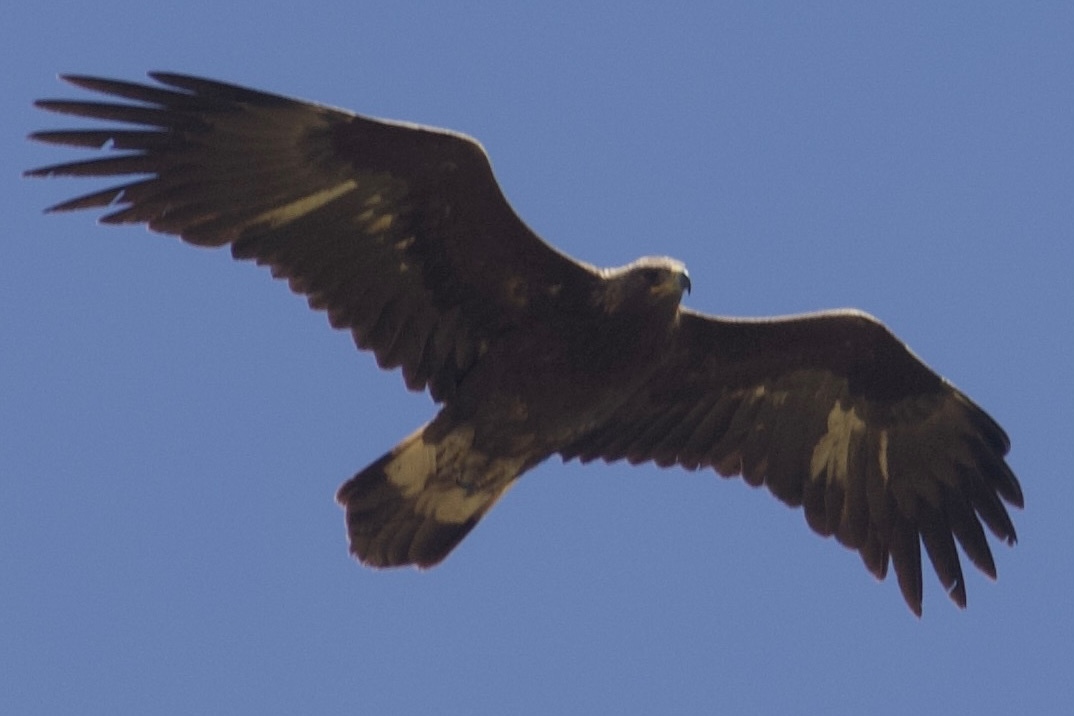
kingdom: Animalia
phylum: Chordata
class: Aves
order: Accipitriformes
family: Accipitridae
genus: Aquila
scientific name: Aquila chrysaetos
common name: Golden eagle
